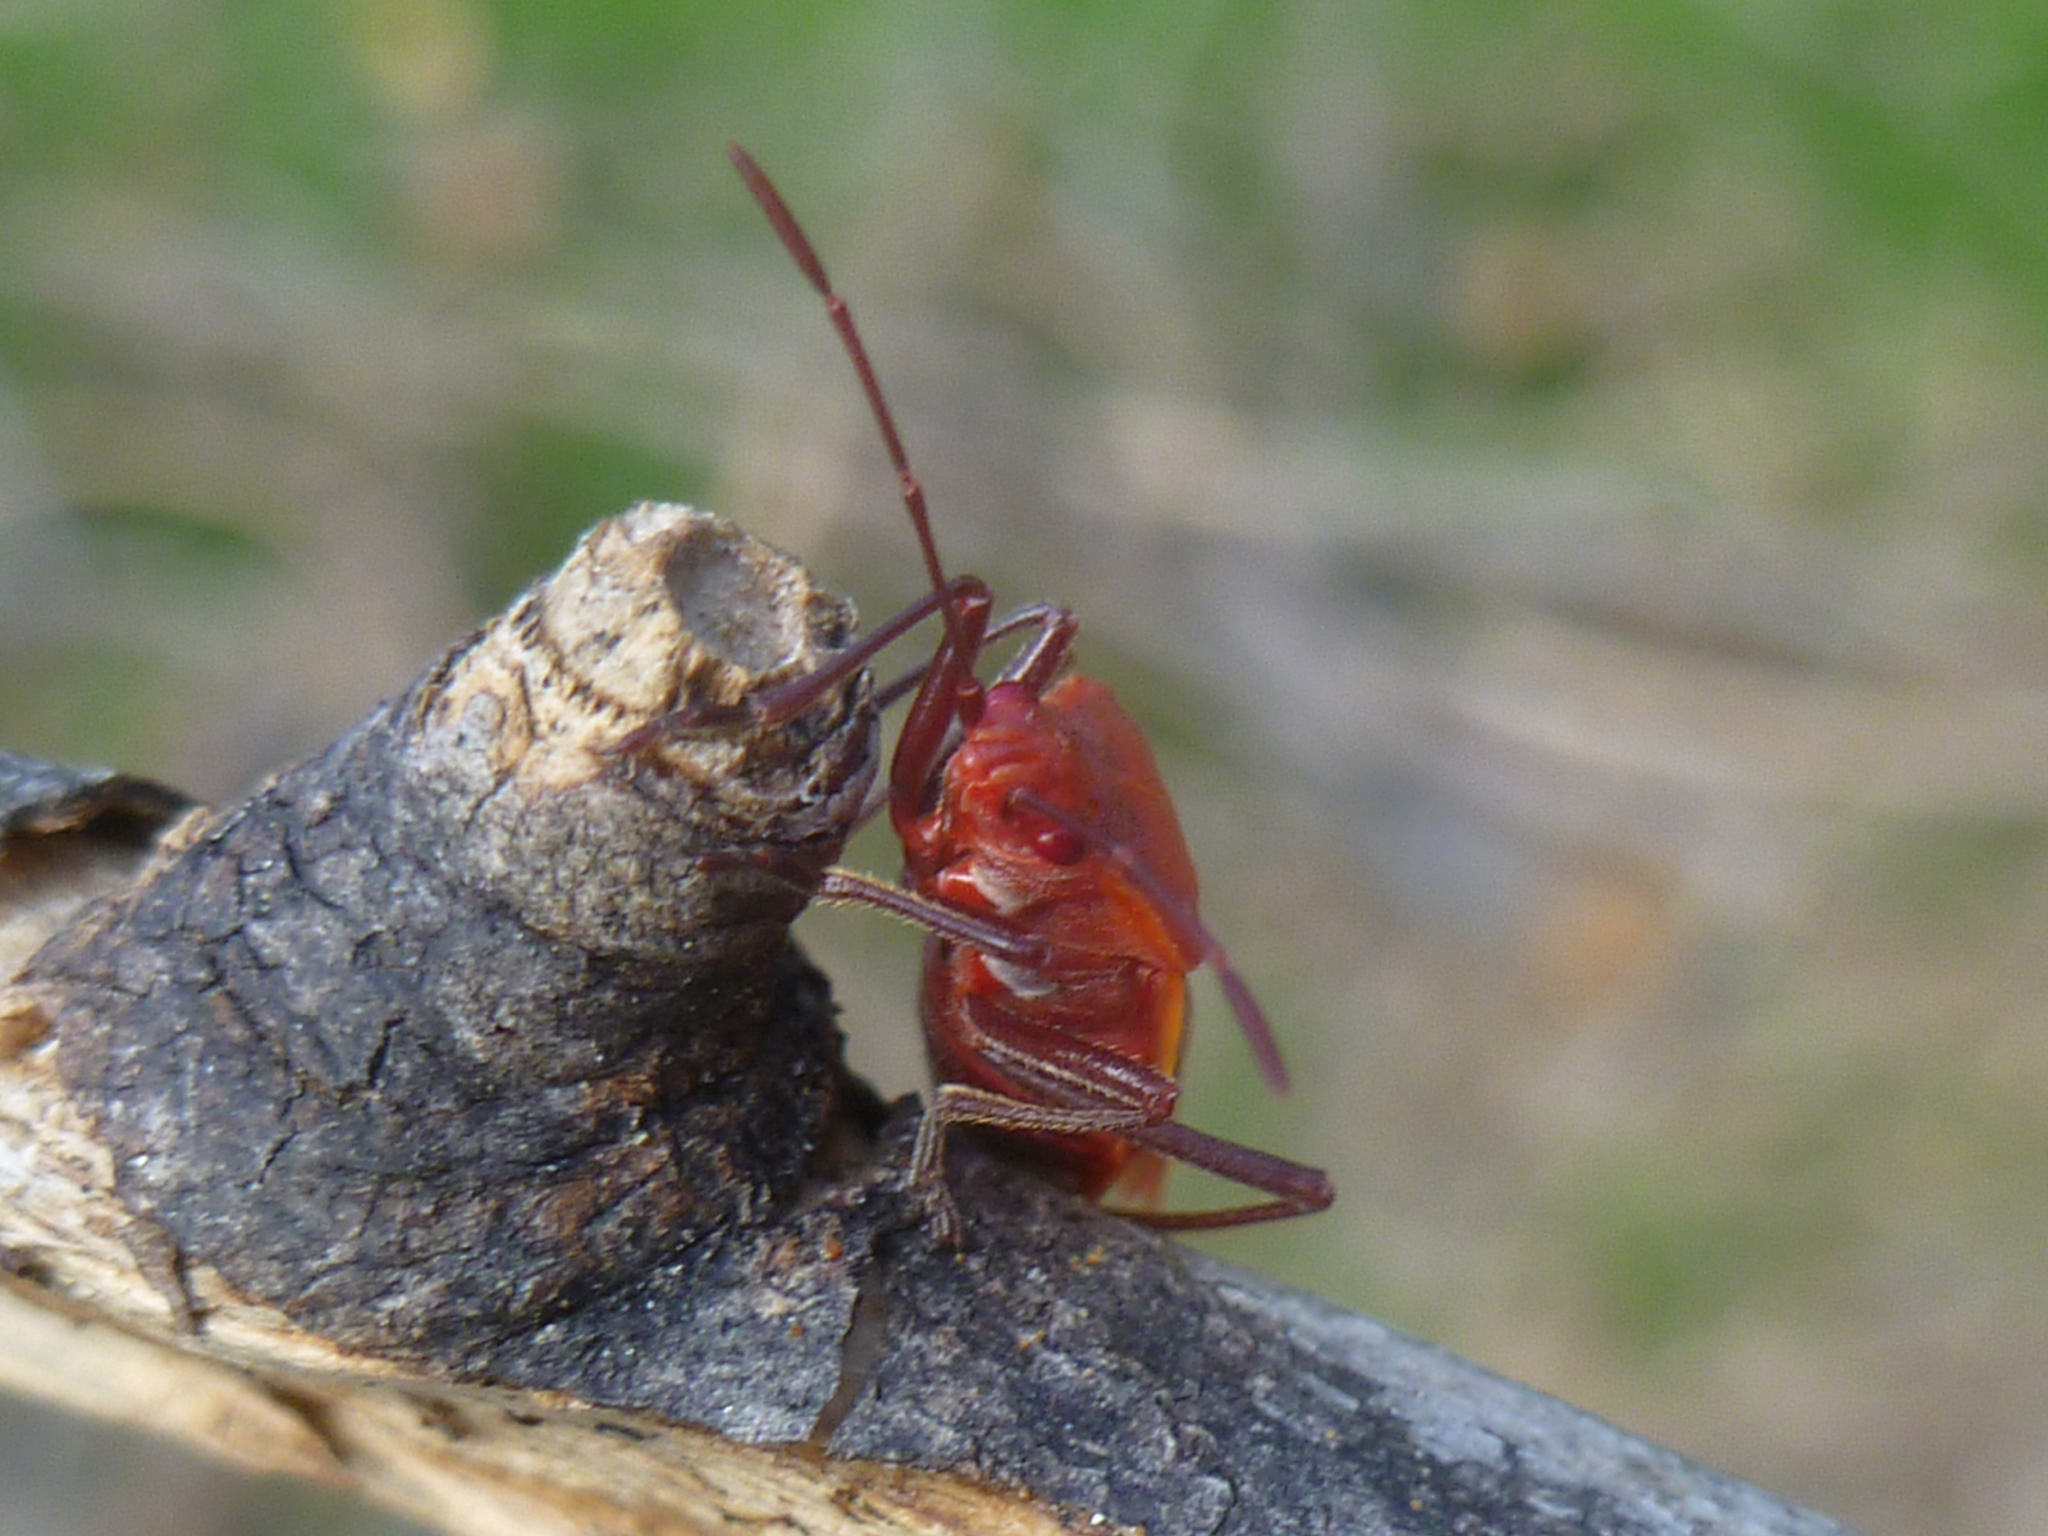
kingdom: Animalia
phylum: Arthropoda
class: Insecta
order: Hemiptera
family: Rhopalidae
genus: Boisea
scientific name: Boisea trivittata
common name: Boxelder bug
